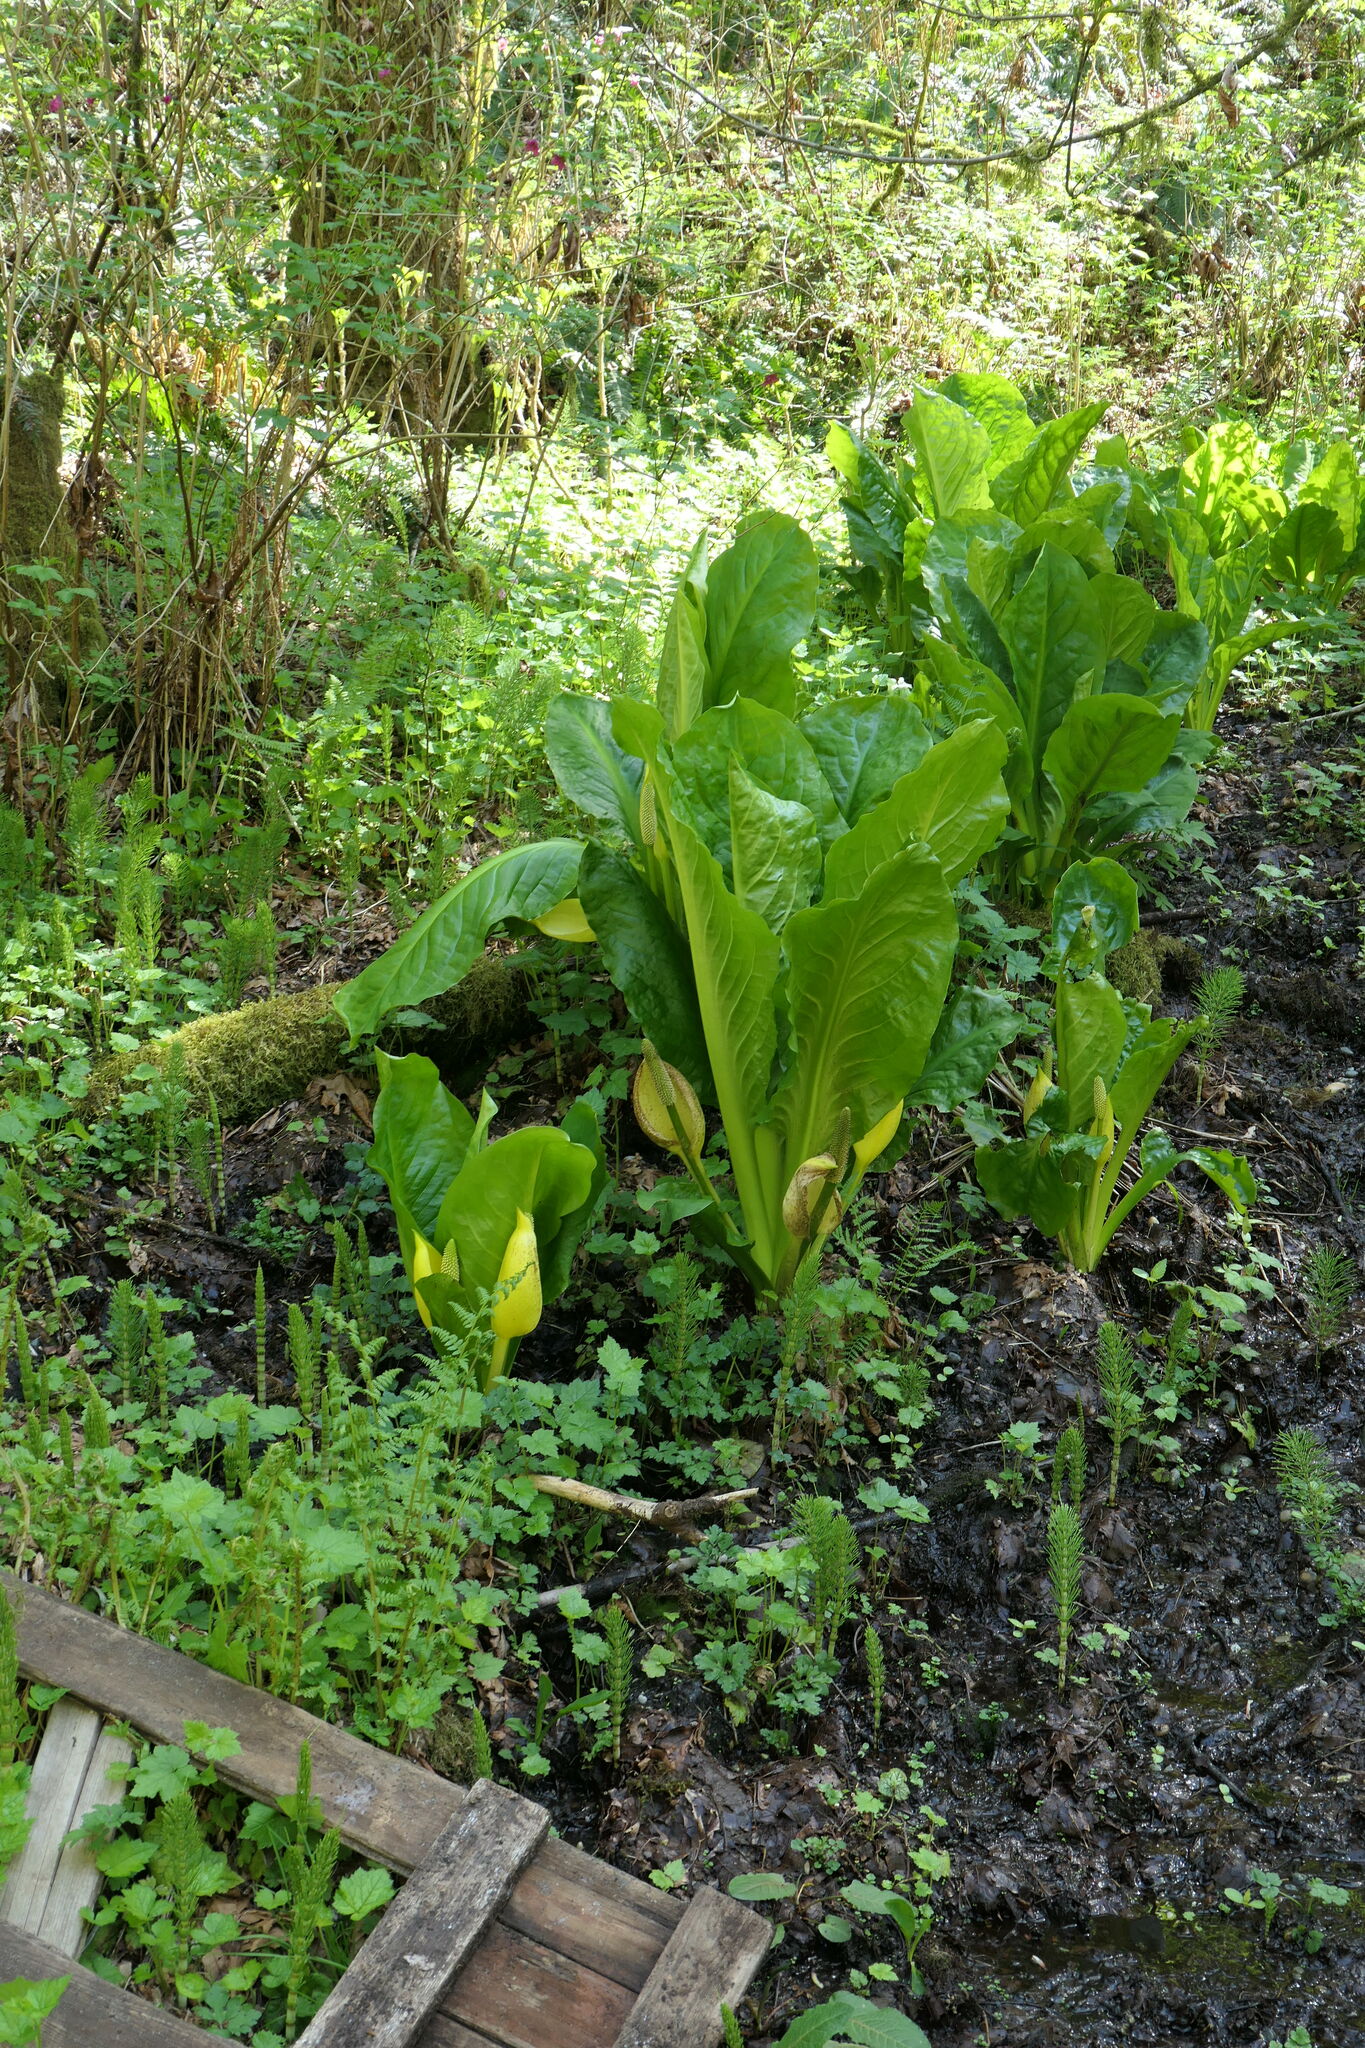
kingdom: Plantae
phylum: Tracheophyta
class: Liliopsida
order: Alismatales
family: Araceae
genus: Lysichiton
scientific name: Lysichiton americanus
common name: American skunk cabbage
